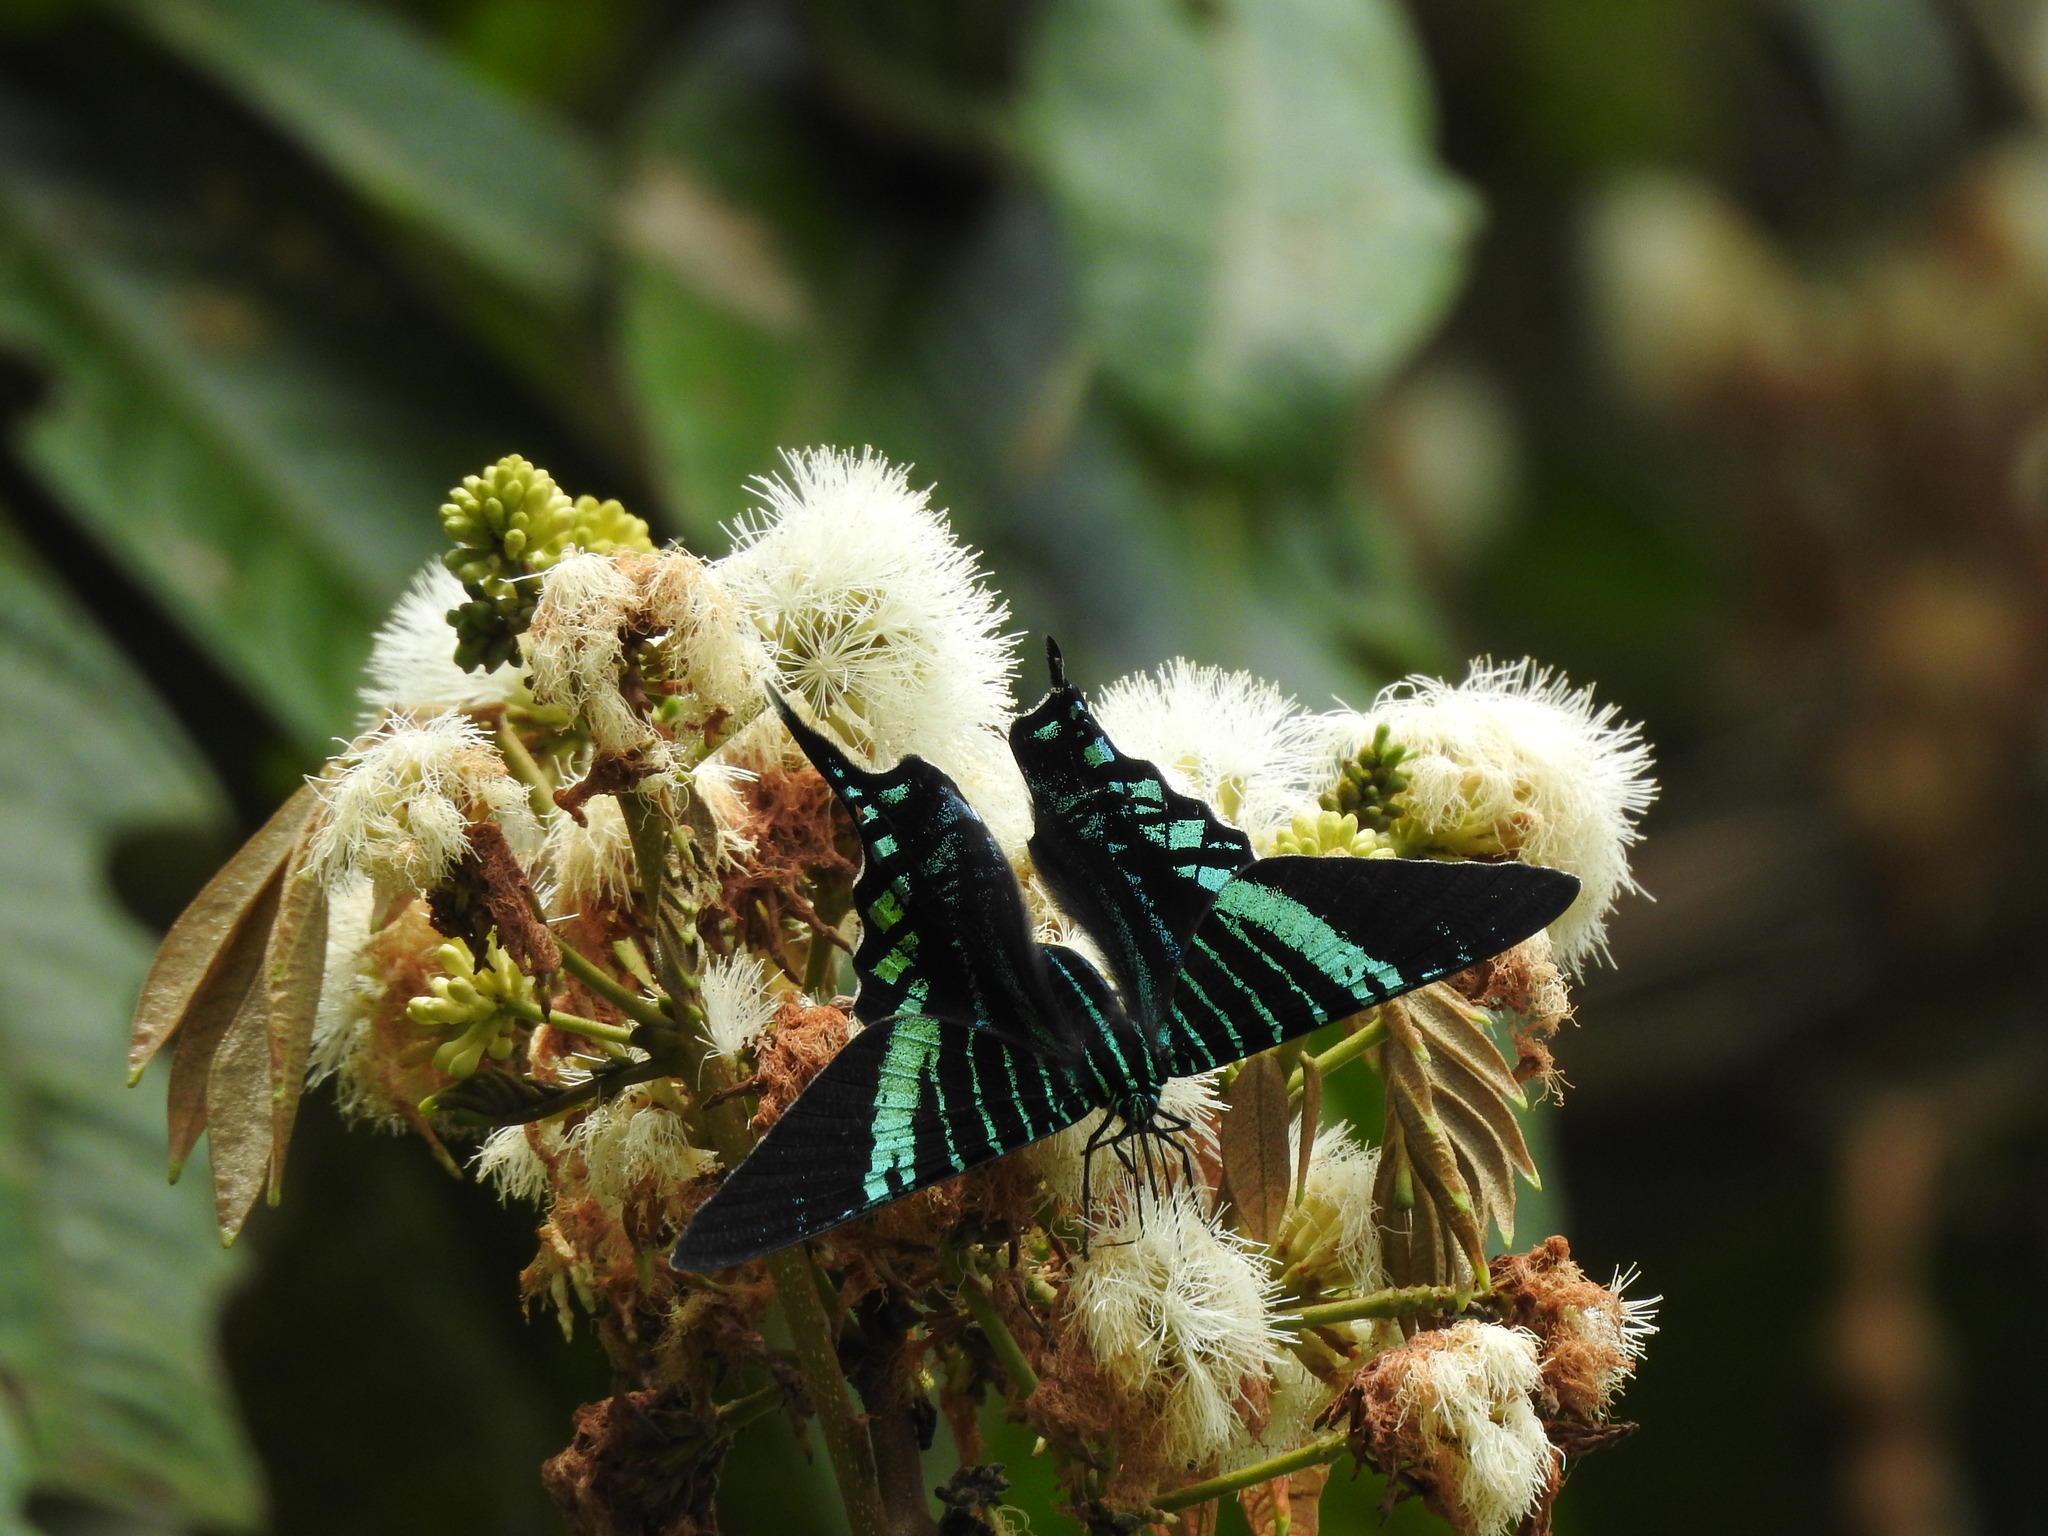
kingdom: Animalia
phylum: Arthropoda
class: Insecta
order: Lepidoptera
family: Uraniidae
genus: Urania
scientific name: Urania fulgens
